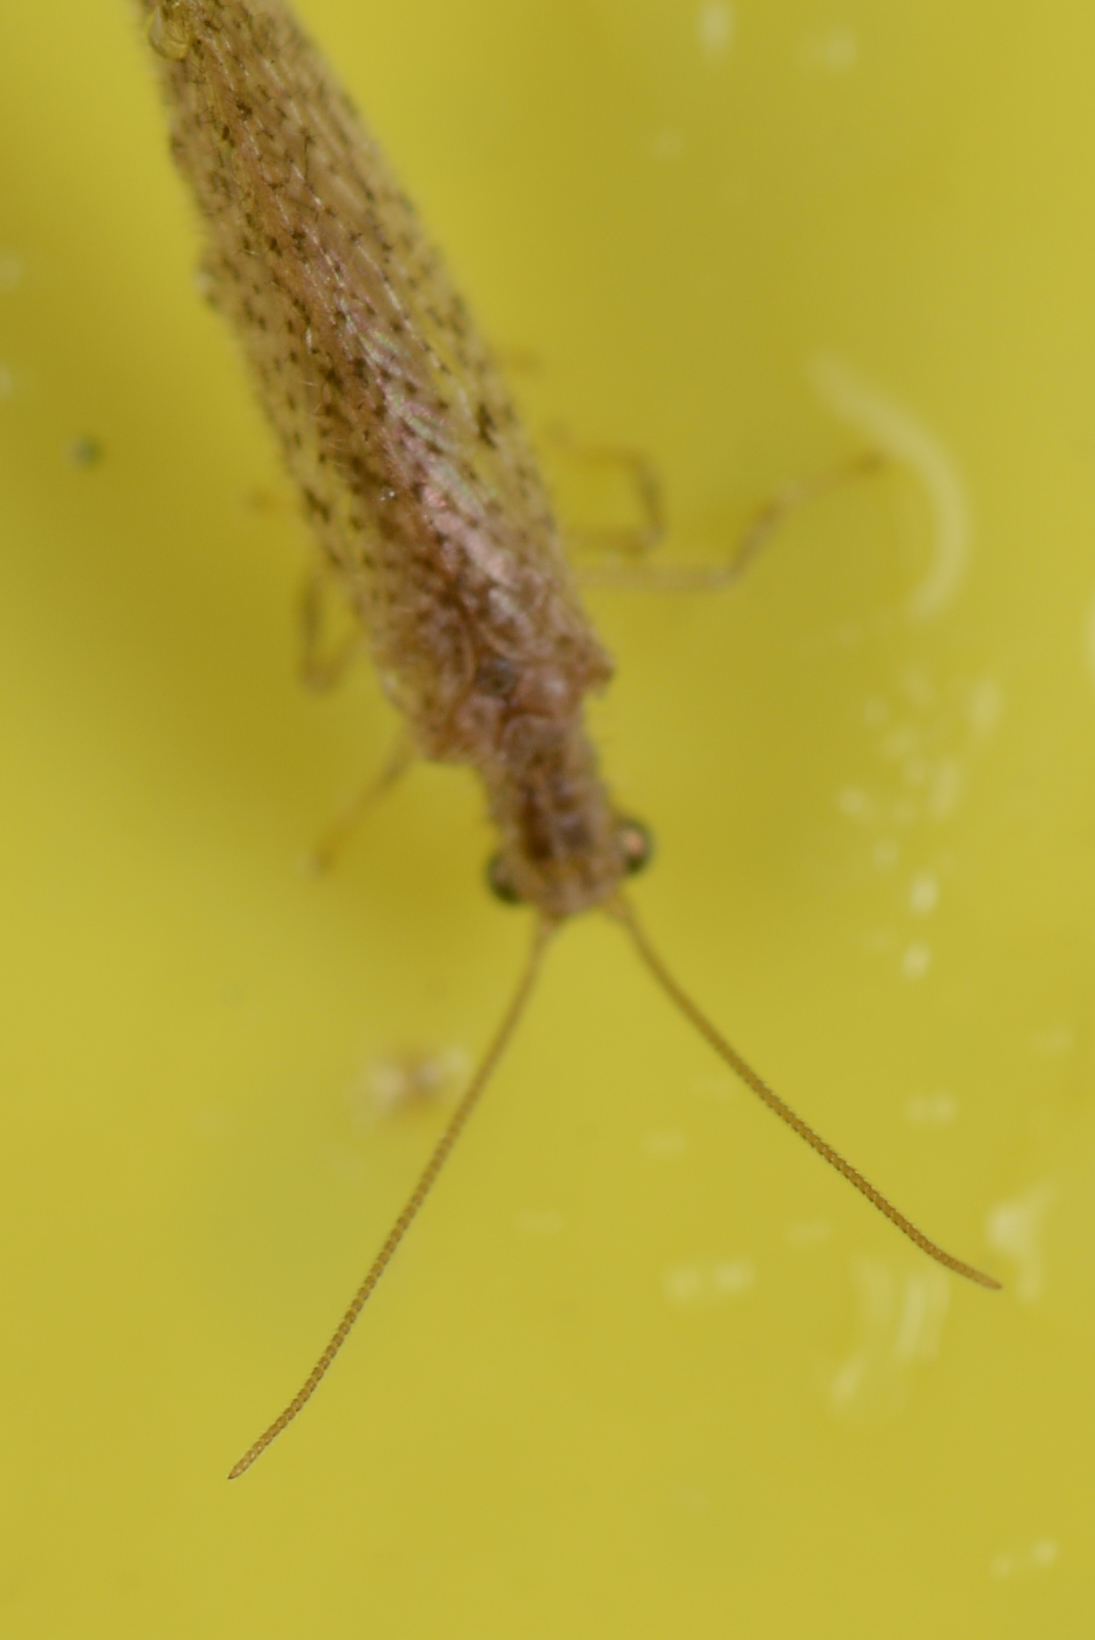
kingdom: Animalia
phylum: Arthropoda
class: Insecta
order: Neuroptera
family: Hemerobiidae
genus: Micromus
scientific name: Micromus tasmaniae
